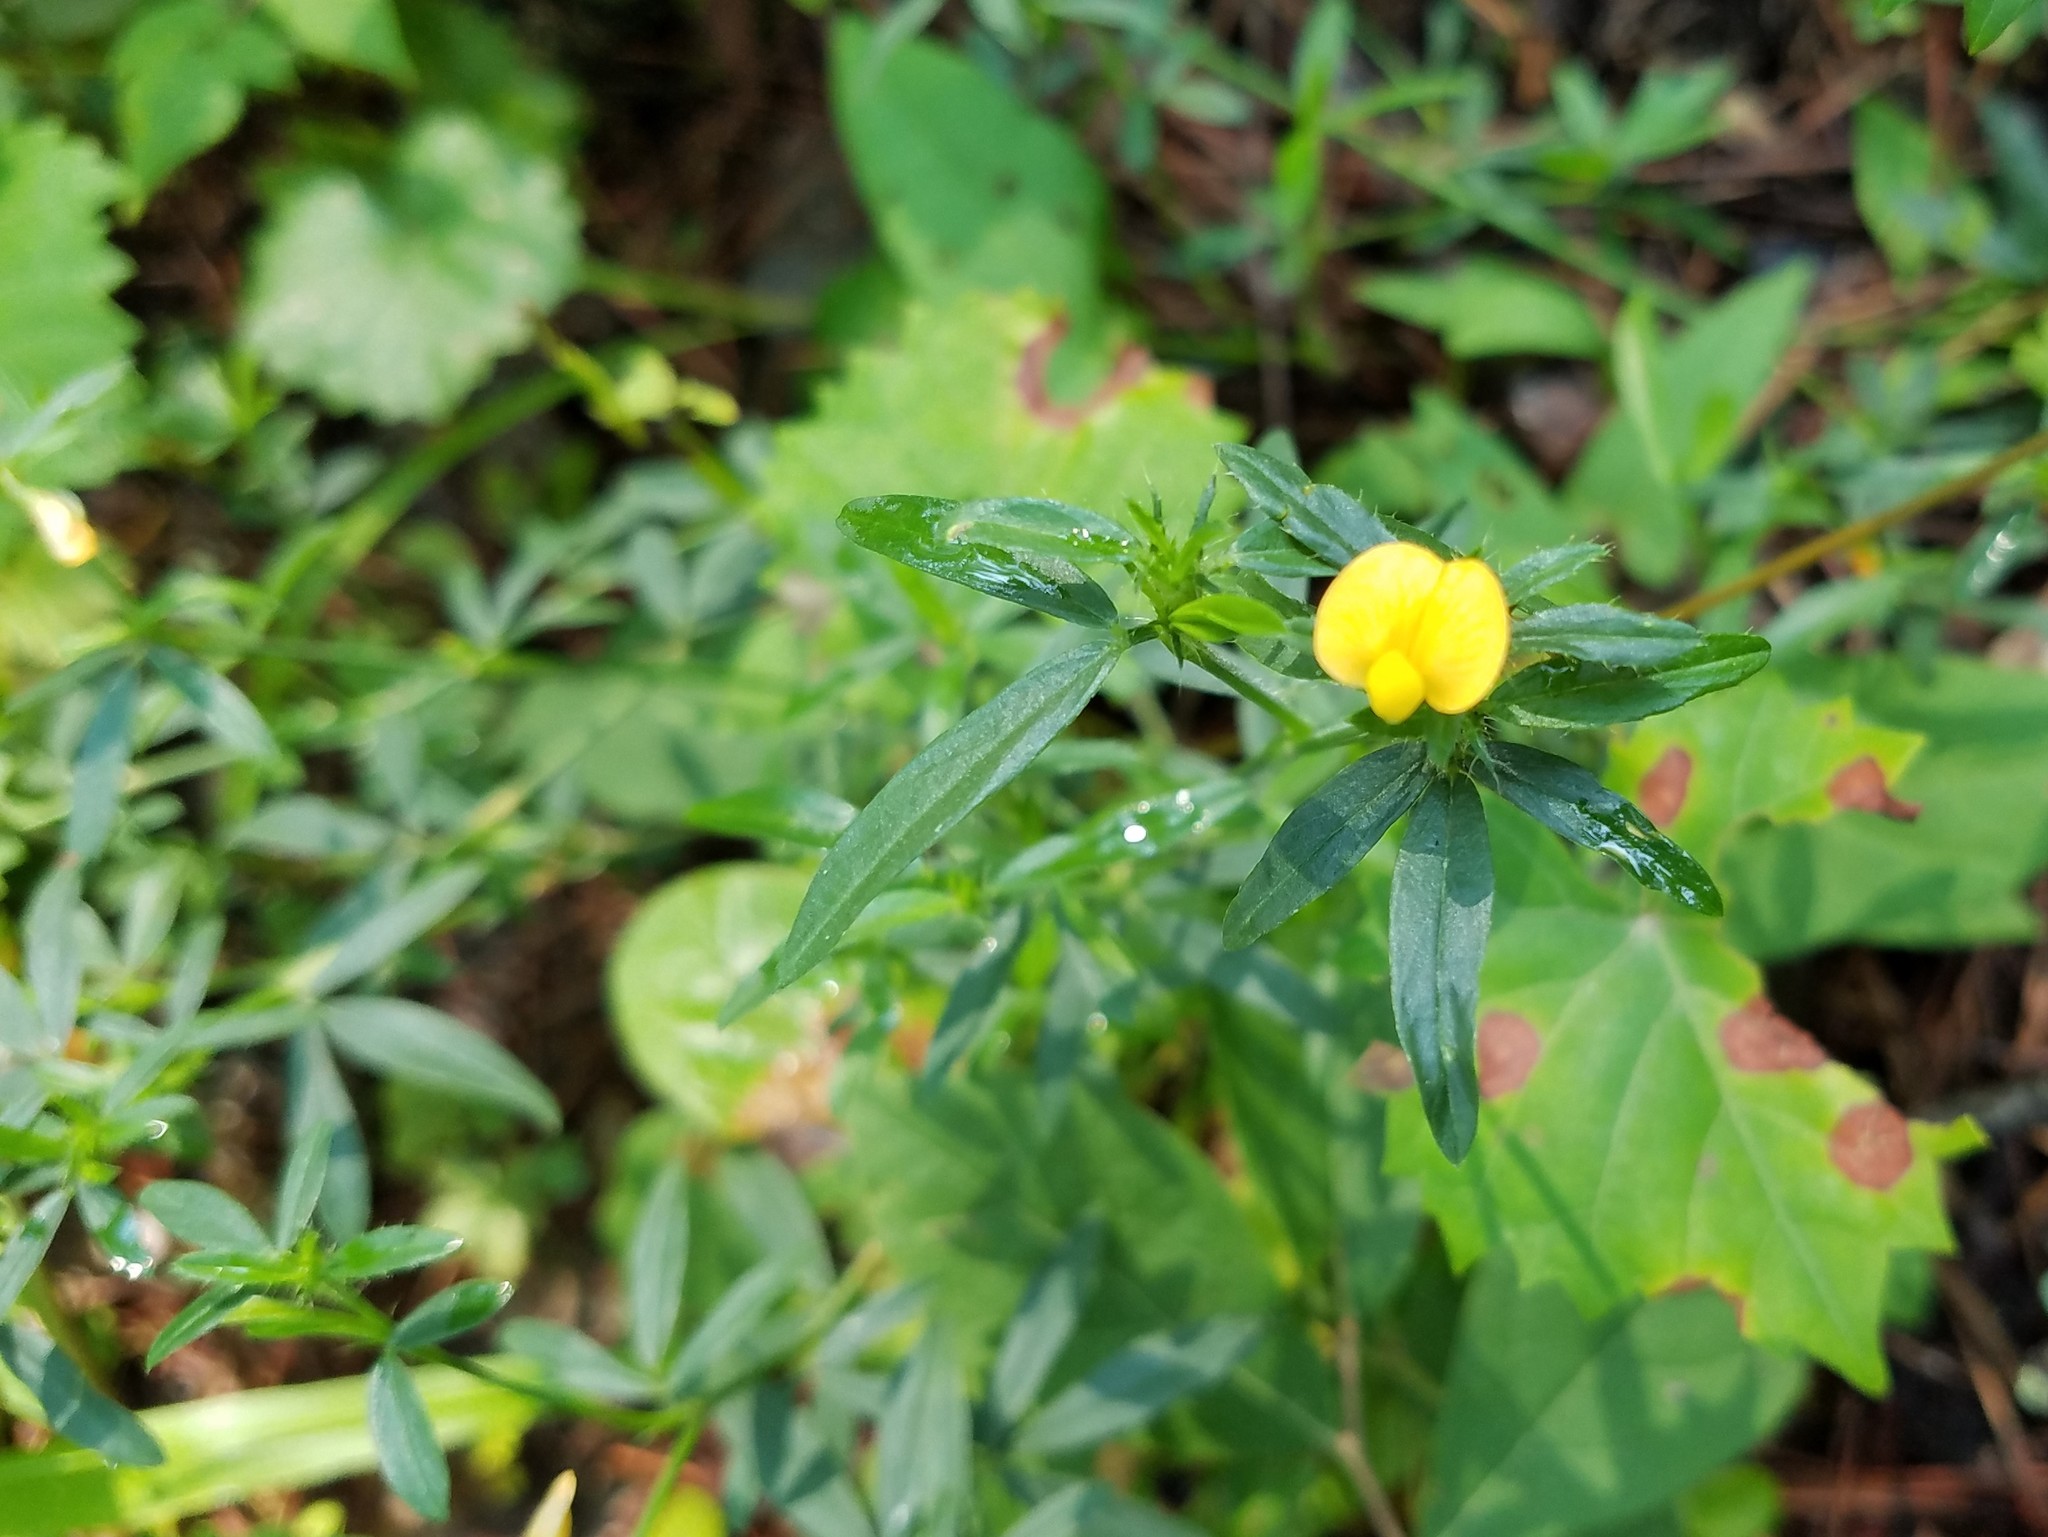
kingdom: Plantae
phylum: Tracheophyta
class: Magnoliopsida
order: Fabales
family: Fabaceae
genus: Stylosanthes
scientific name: Stylosanthes biflora
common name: Two-flower pencil-flower
